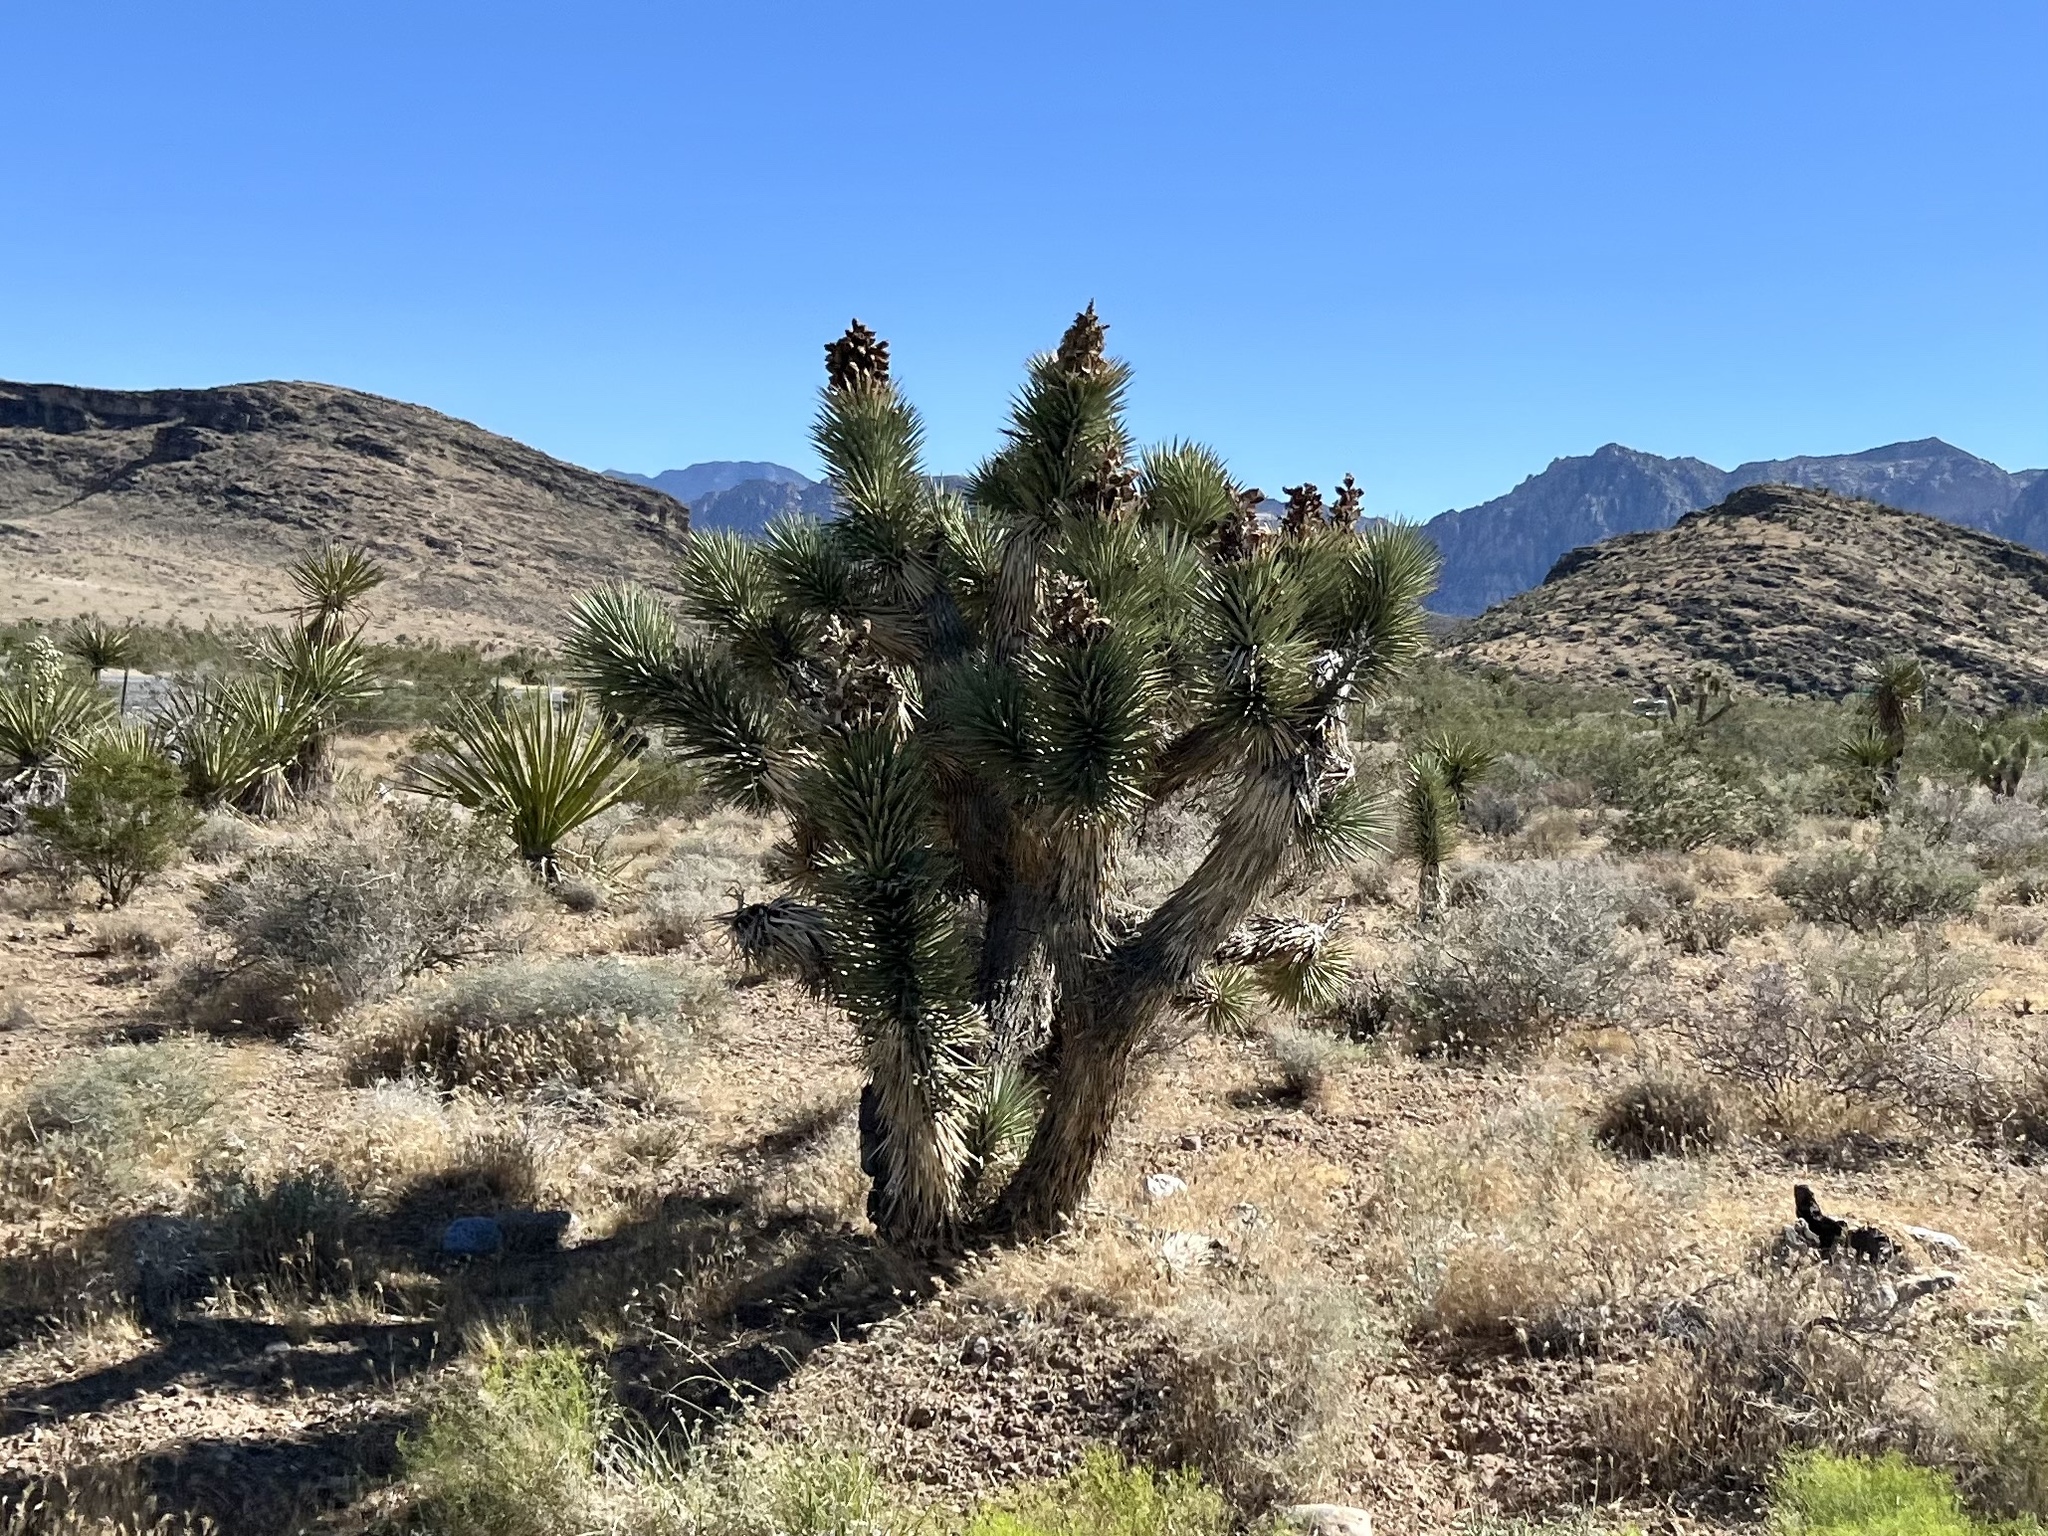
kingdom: Plantae
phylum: Tracheophyta
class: Liliopsida
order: Asparagales
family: Asparagaceae
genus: Yucca
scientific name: Yucca brevifolia
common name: Joshua tree
